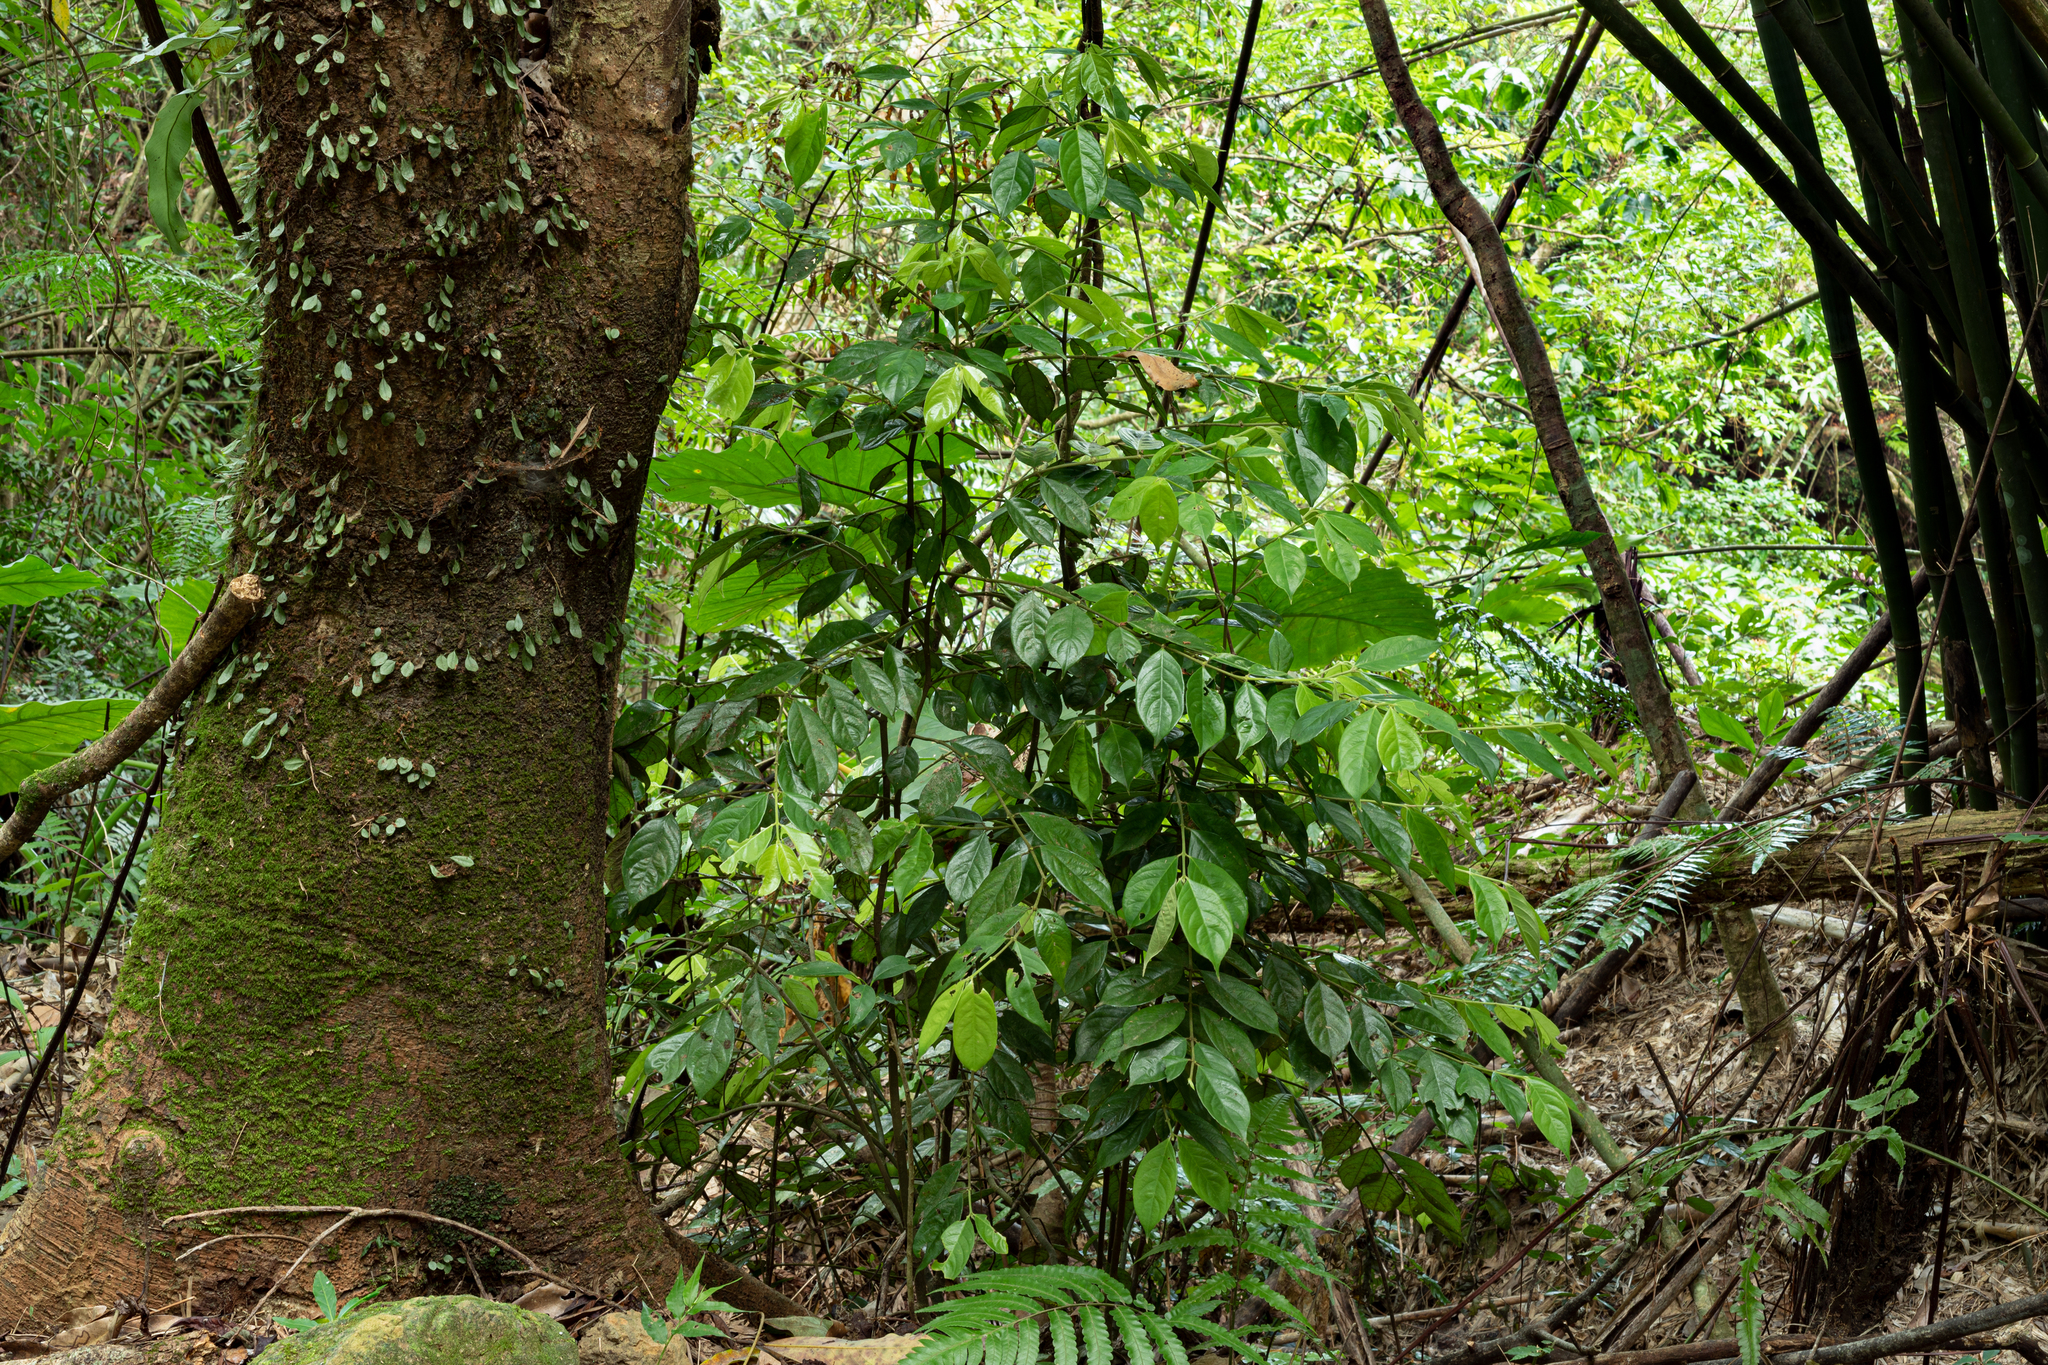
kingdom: Plantae
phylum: Tracheophyta
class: Magnoliopsida
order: Gentianales
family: Rubiaceae
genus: Lasianthus
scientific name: Lasianthus hispidulus
